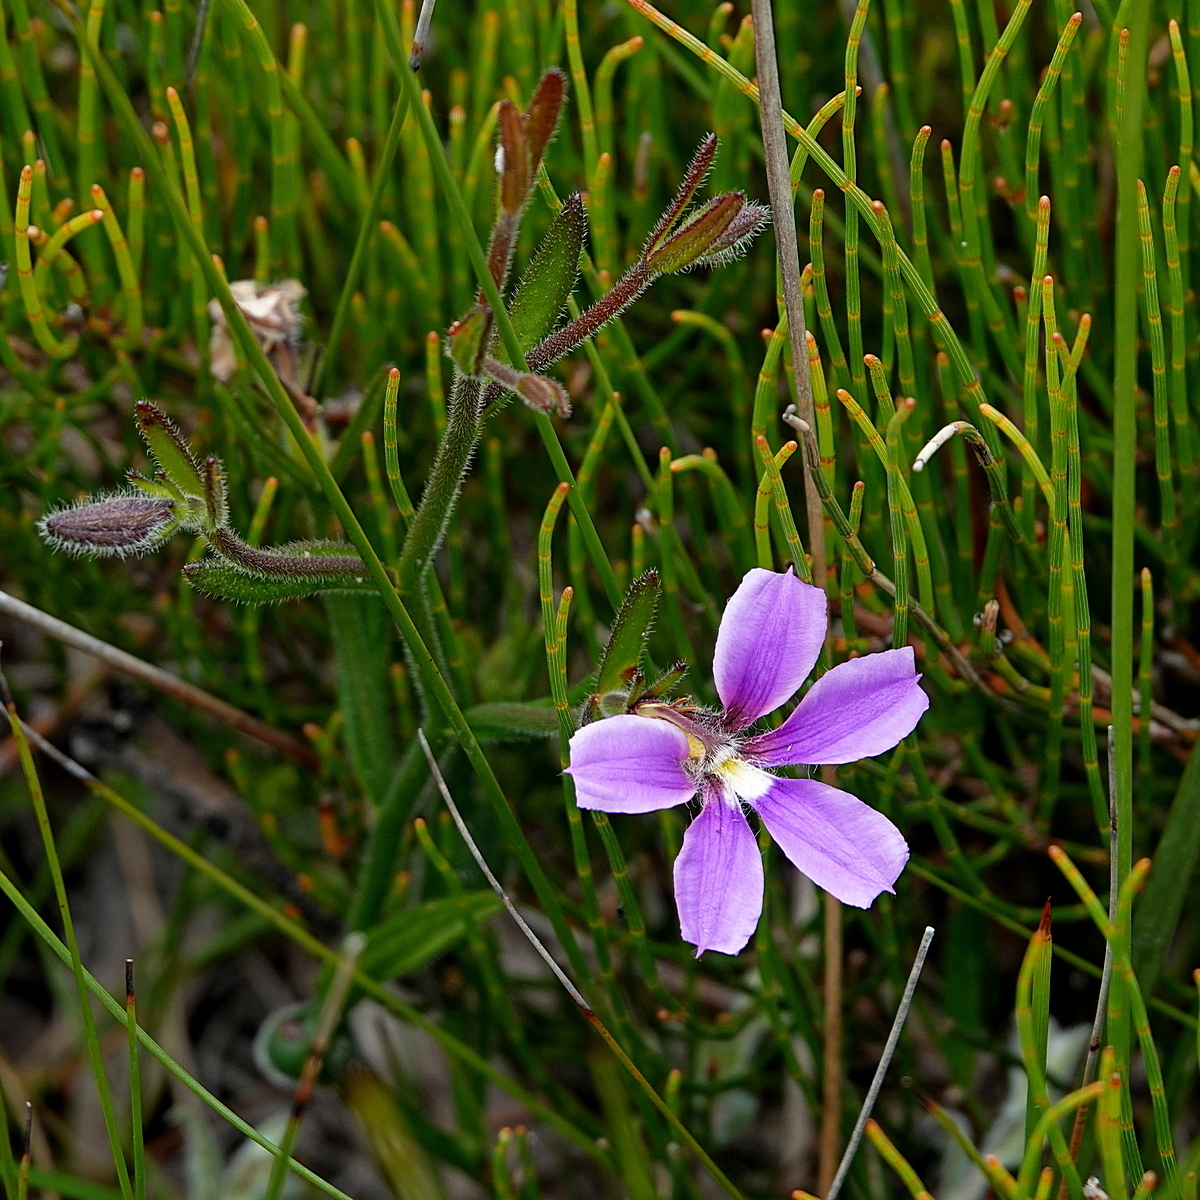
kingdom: Plantae
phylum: Tracheophyta
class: Magnoliopsida
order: Asterales
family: Goodeniaceae
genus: Scaevola
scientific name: Scaevola ramosissima
